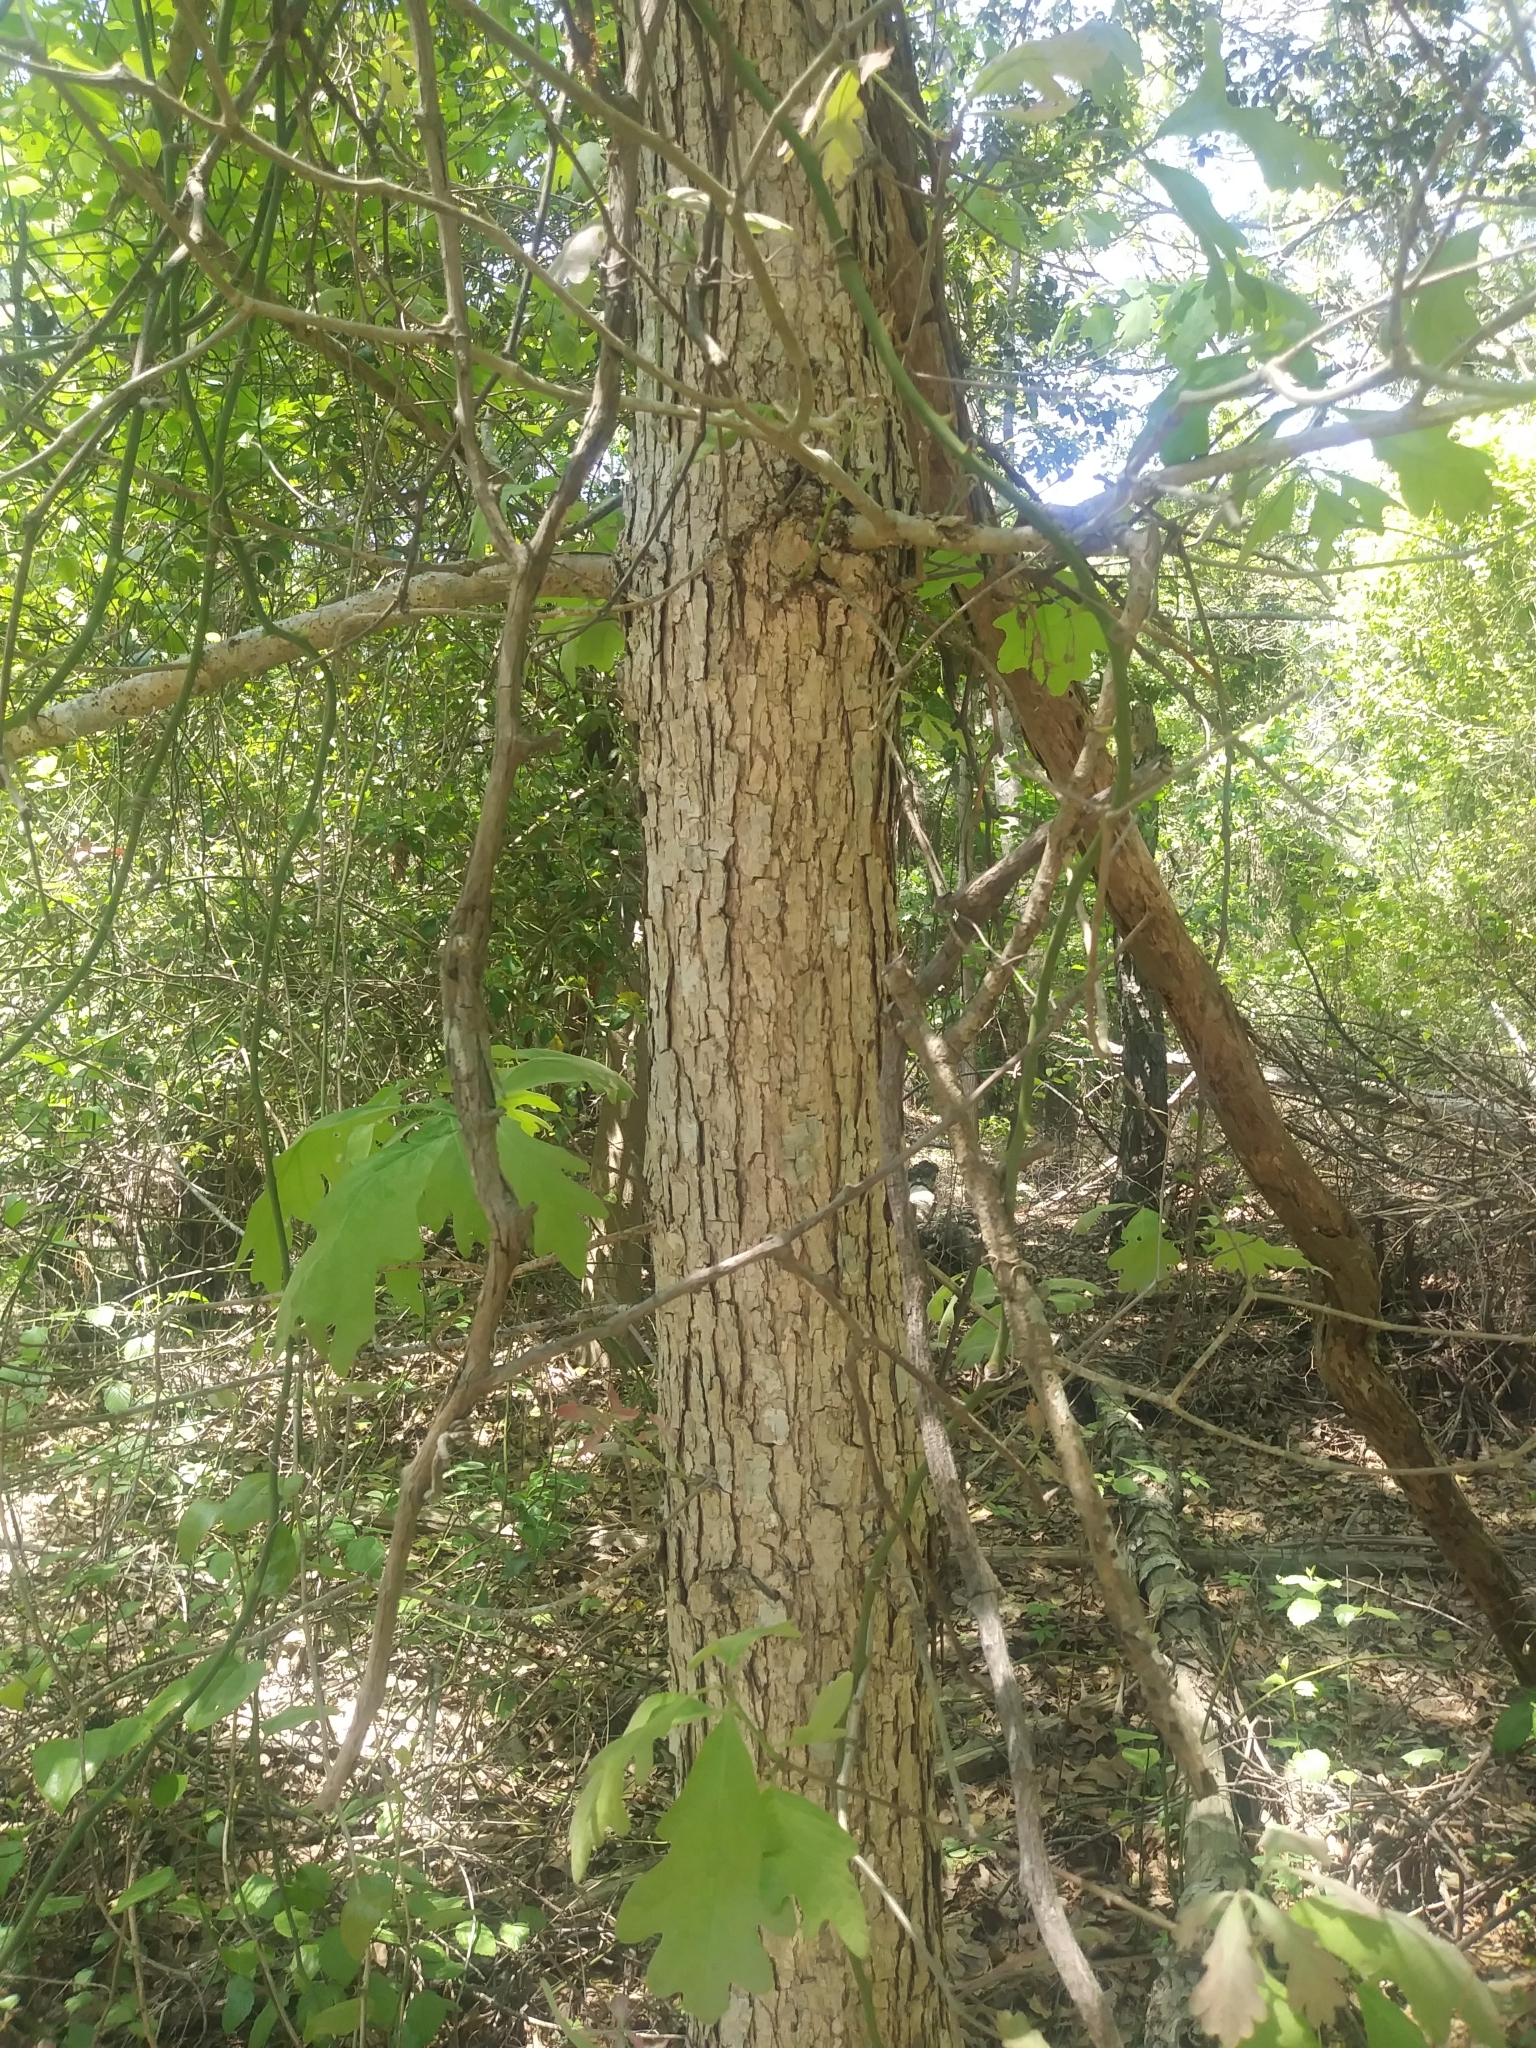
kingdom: Plantae
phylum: Tracheophyta
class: Magnoliopsida
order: Fagales
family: Fagaceae
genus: Quercus
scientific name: Quercus alba
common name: White oak
